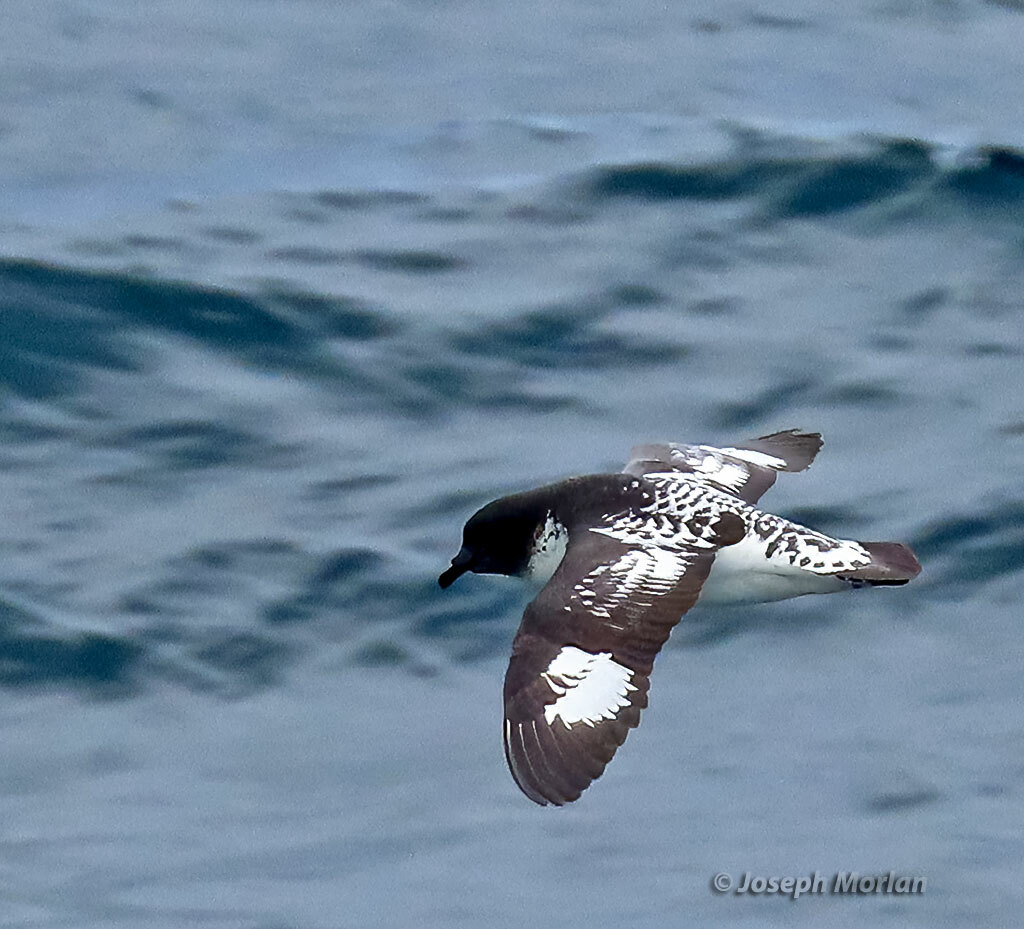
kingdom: Animalia
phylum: Chordata
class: Aves
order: Procellariiformes
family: Procellariidae
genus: Daption
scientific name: Daption capense
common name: Cape petrel
